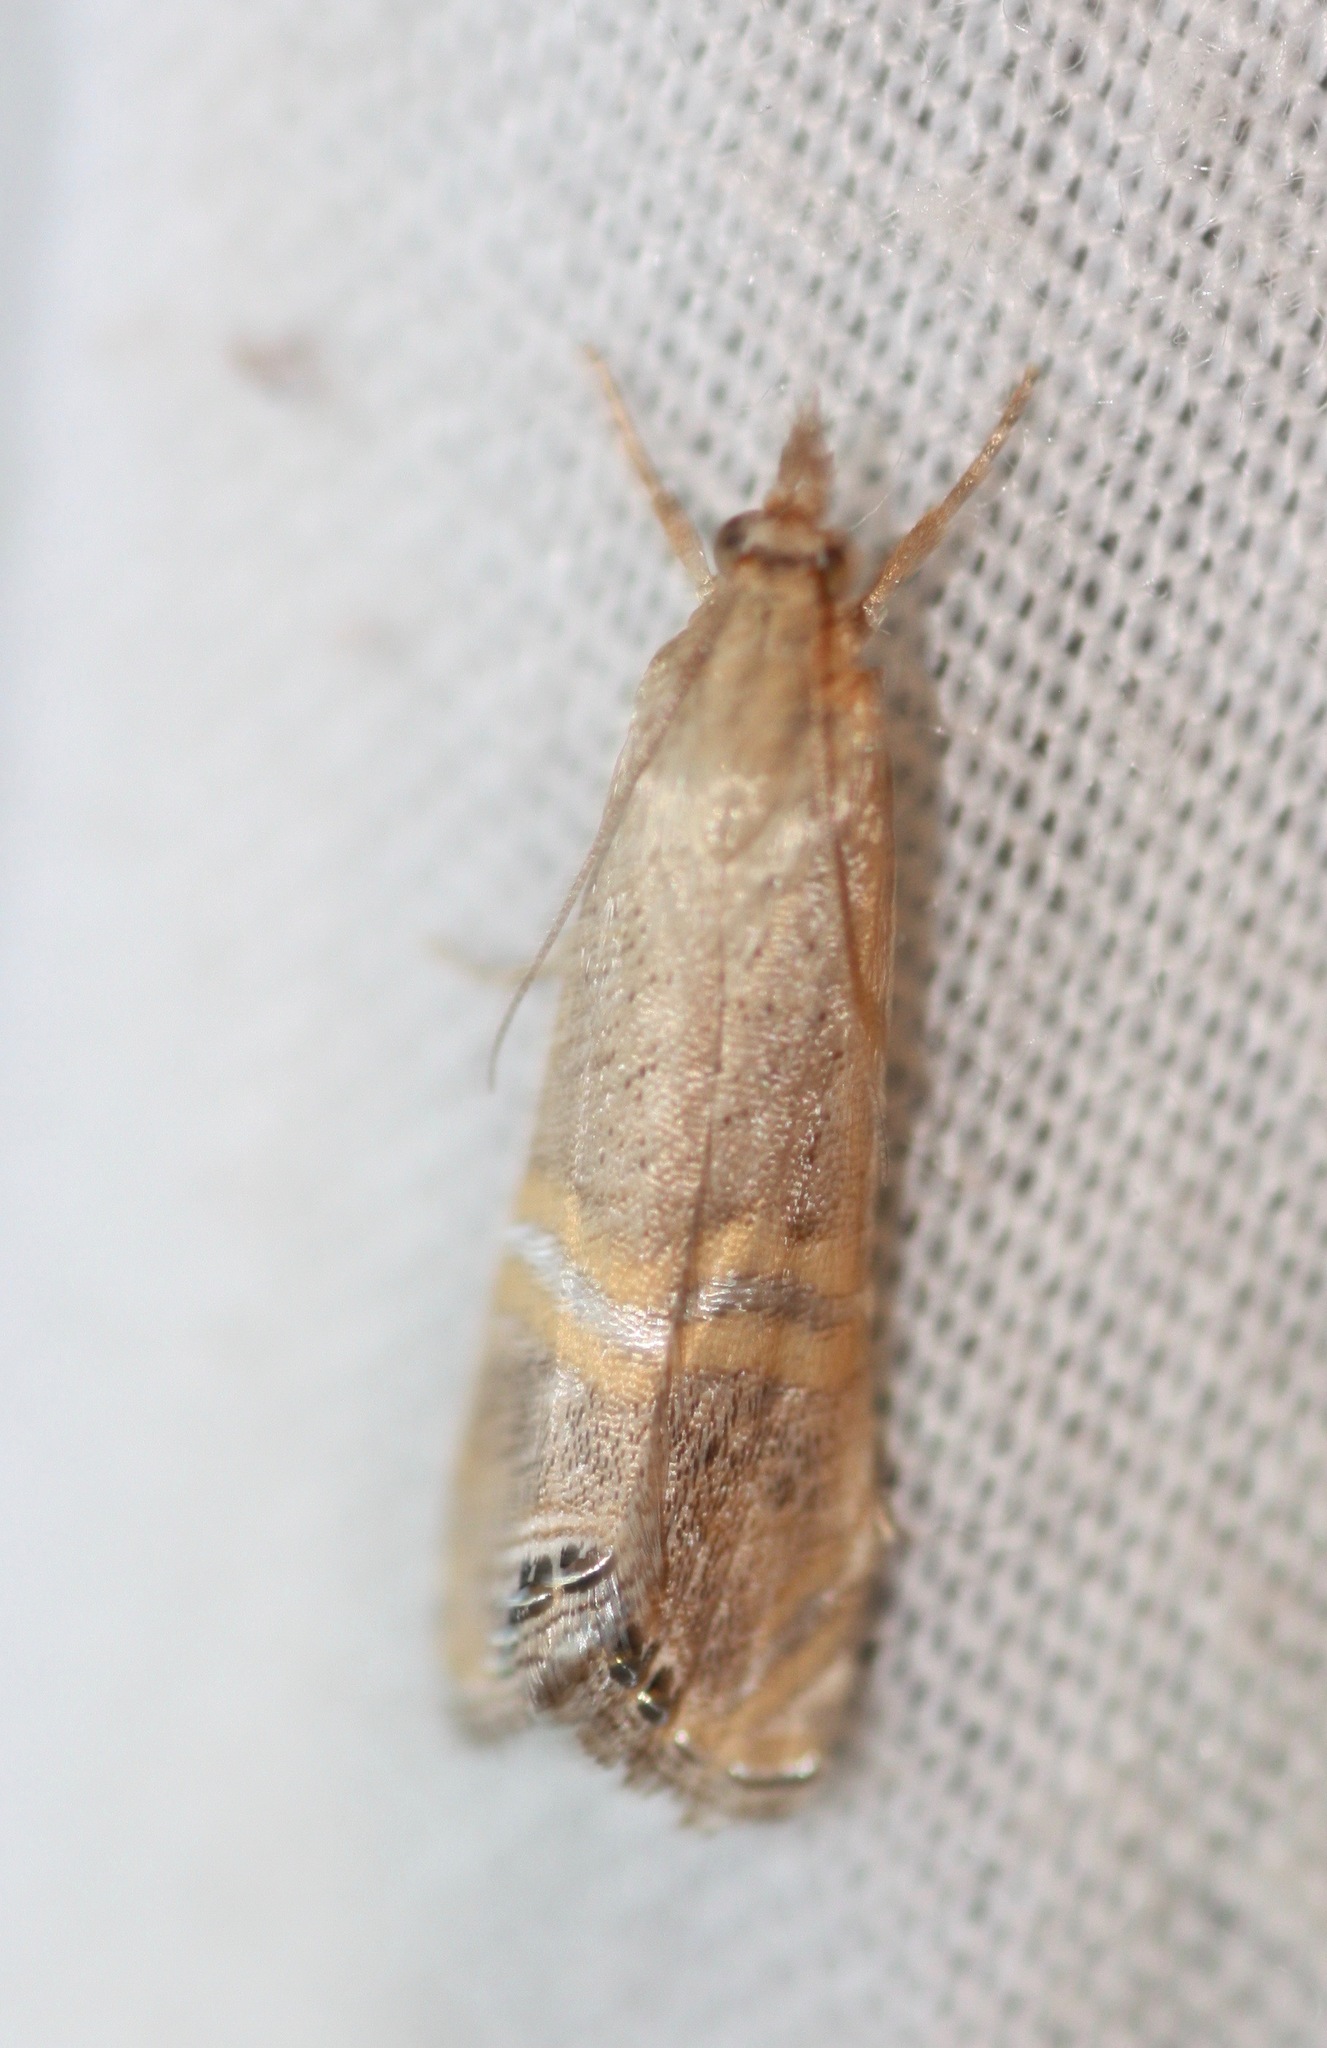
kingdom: Animalia
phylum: Arthropoda
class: Insecta
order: Lepidoptera
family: Crambidae
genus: Euchromius
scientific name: Euchromius ocellea
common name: Necklace veneer moth
